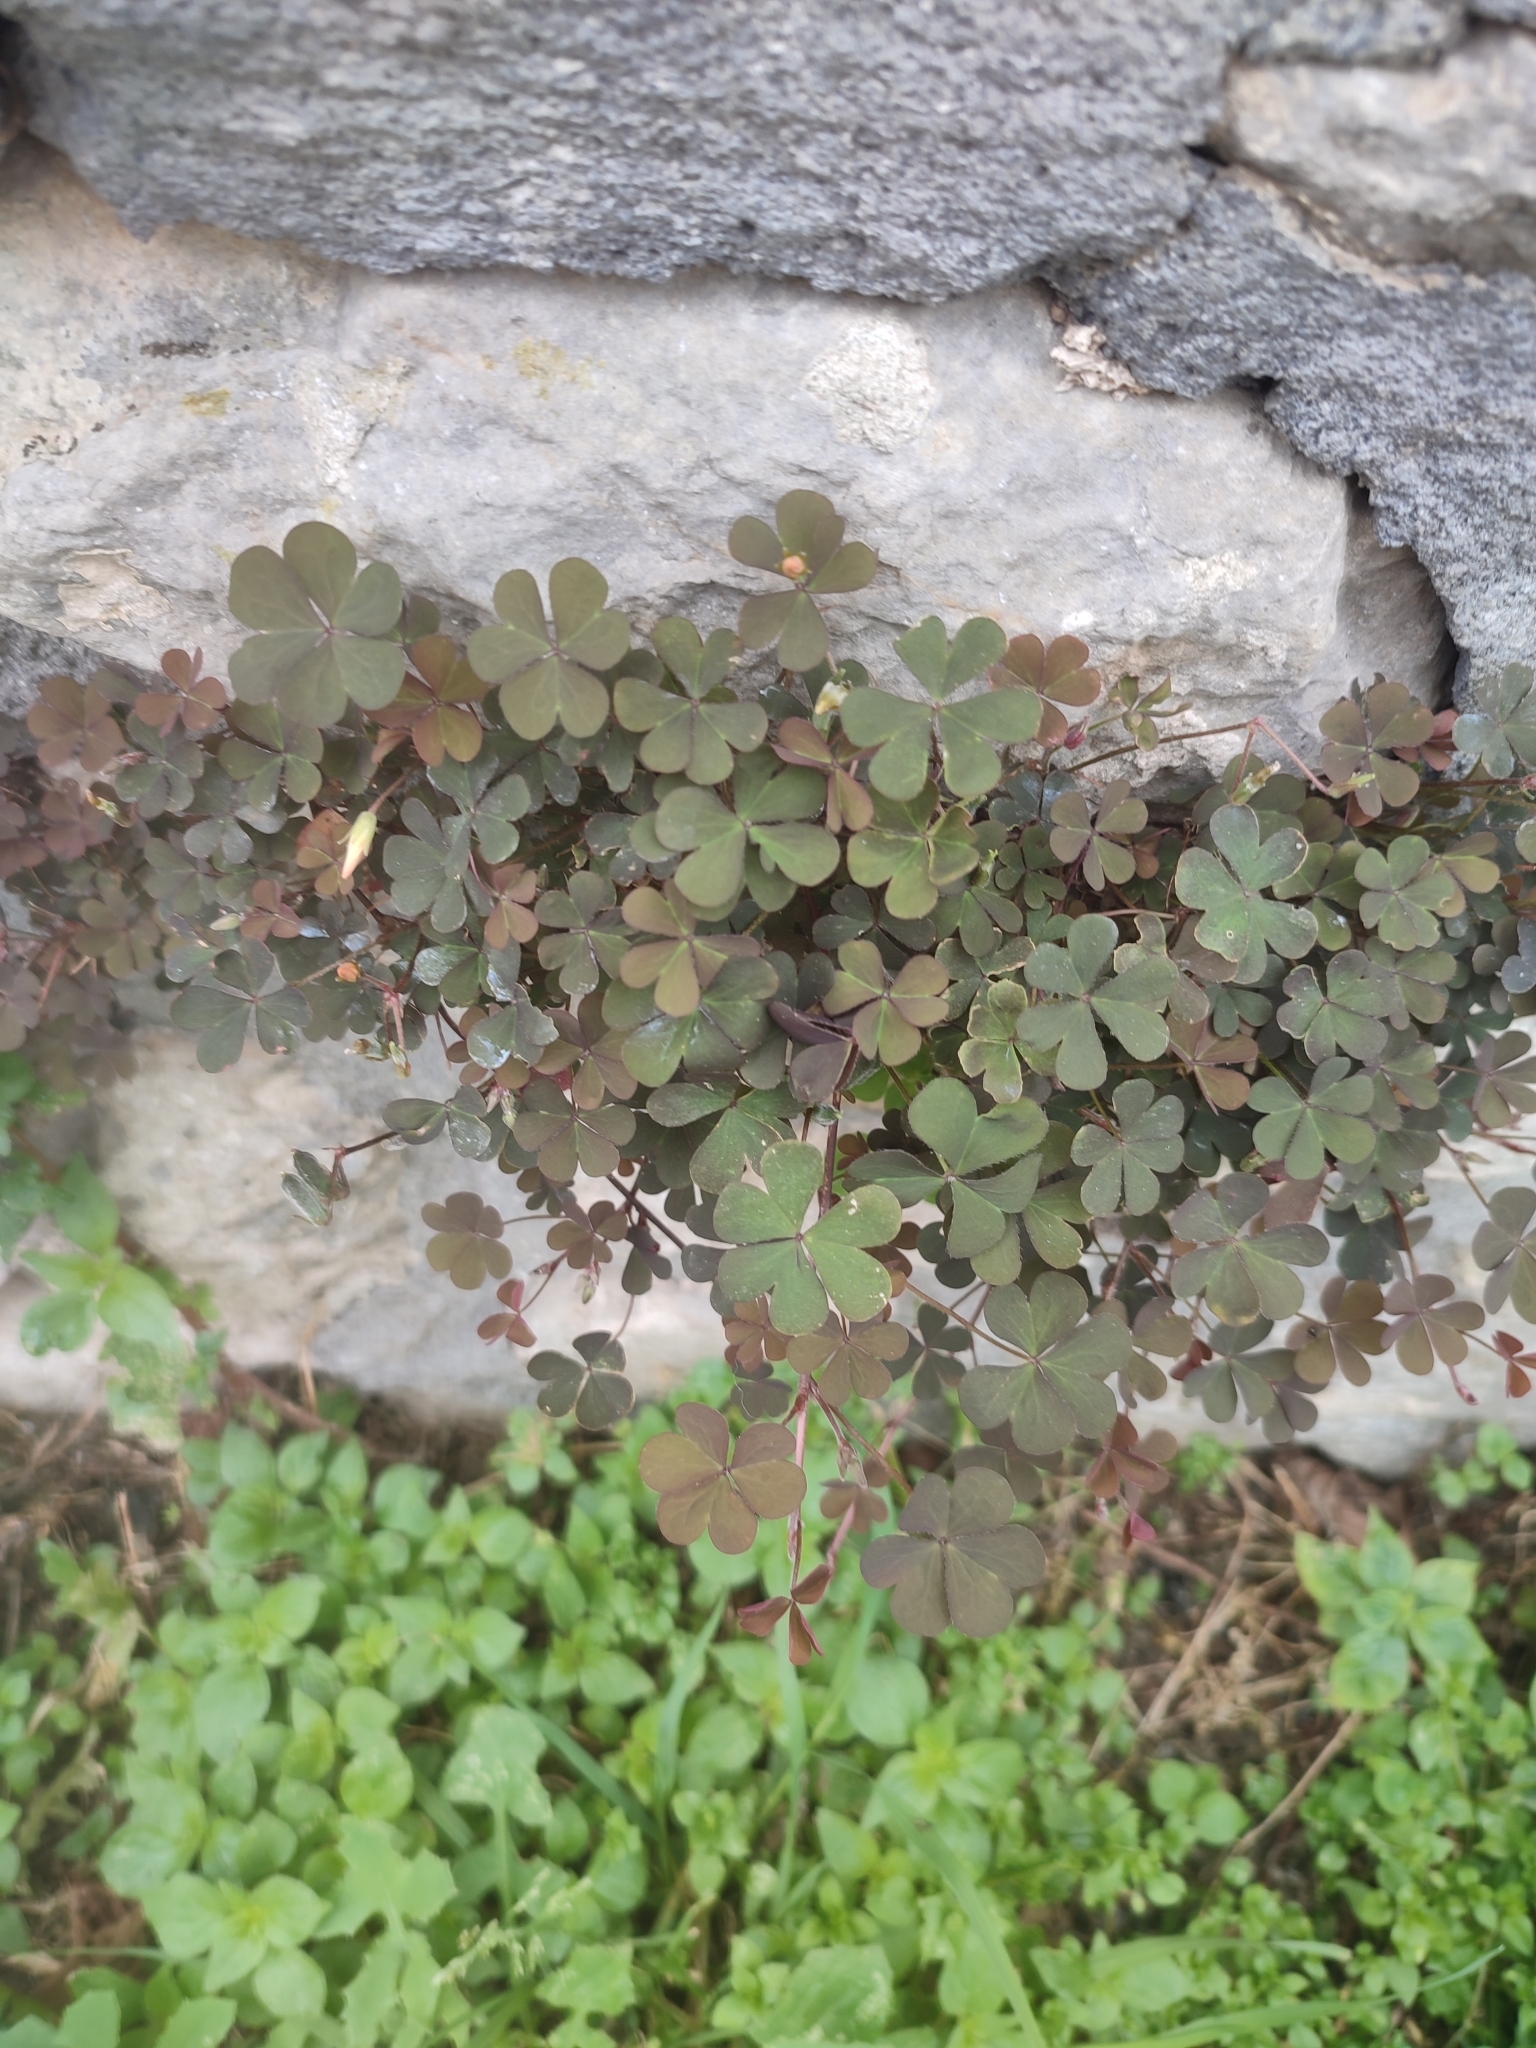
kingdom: Plantae
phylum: Tracheophyta
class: Magnoliopsida
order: Oxalidales
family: Oxalidaceae
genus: Oxalis
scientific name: Oxalis corniculata
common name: Procumbent yellow-sorrel
